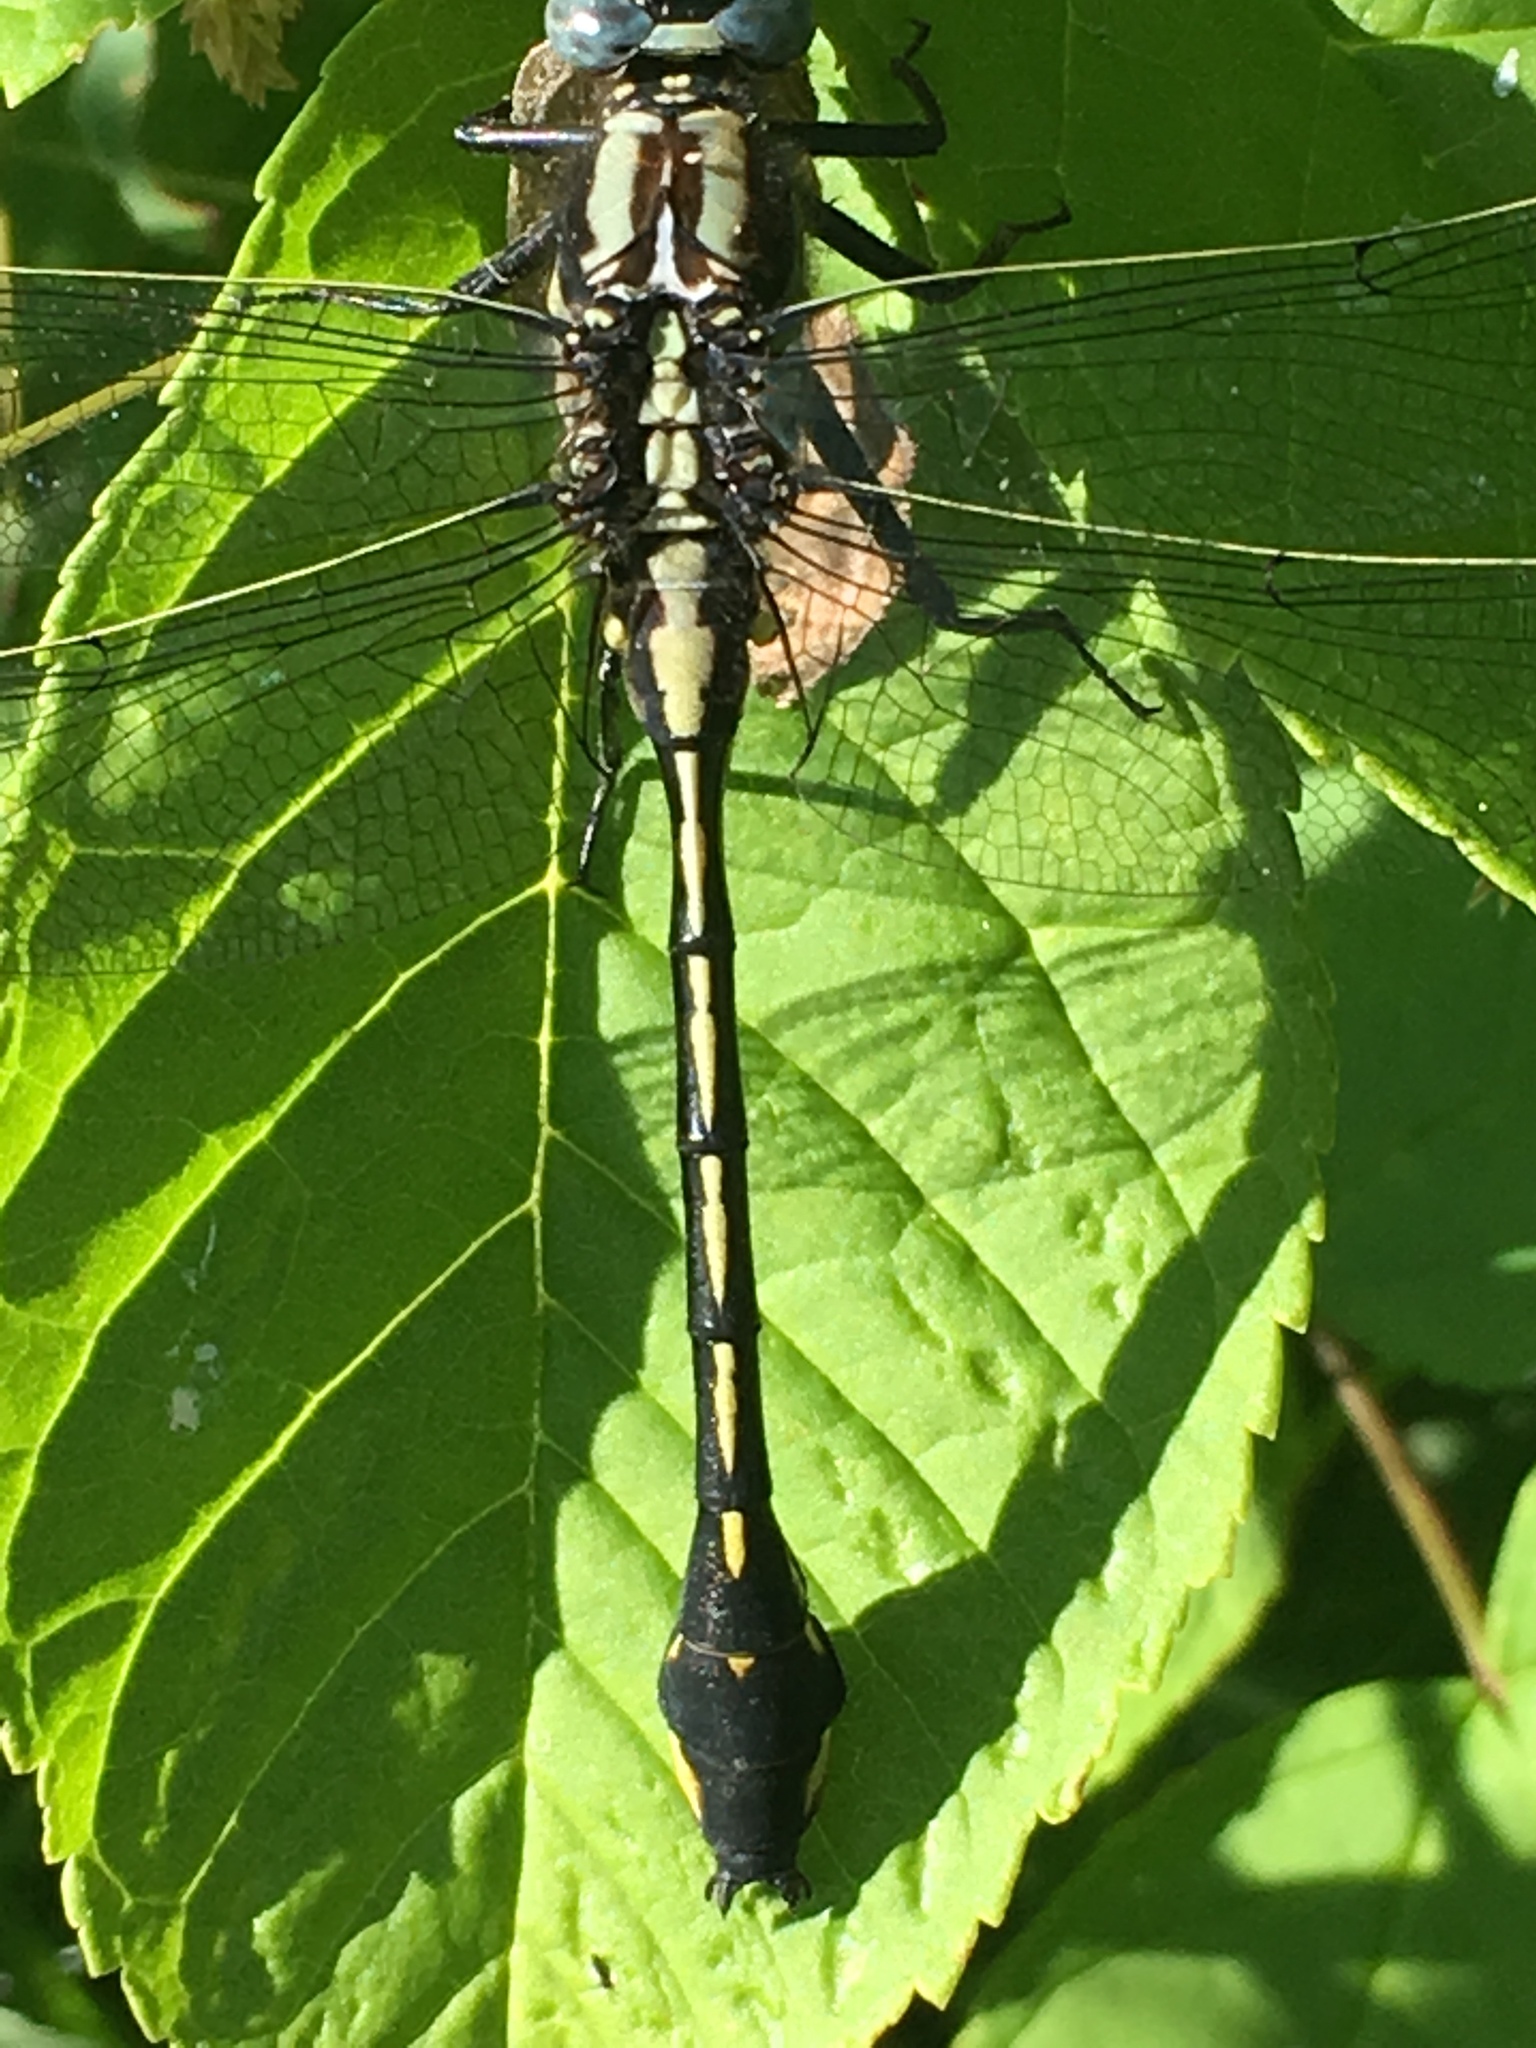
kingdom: Animalia
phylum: Arthropoda
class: Insecta
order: Odonata
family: Gomphidae
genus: Gomphurus
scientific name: Gomphurus fraternus
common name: Midland clubtail
